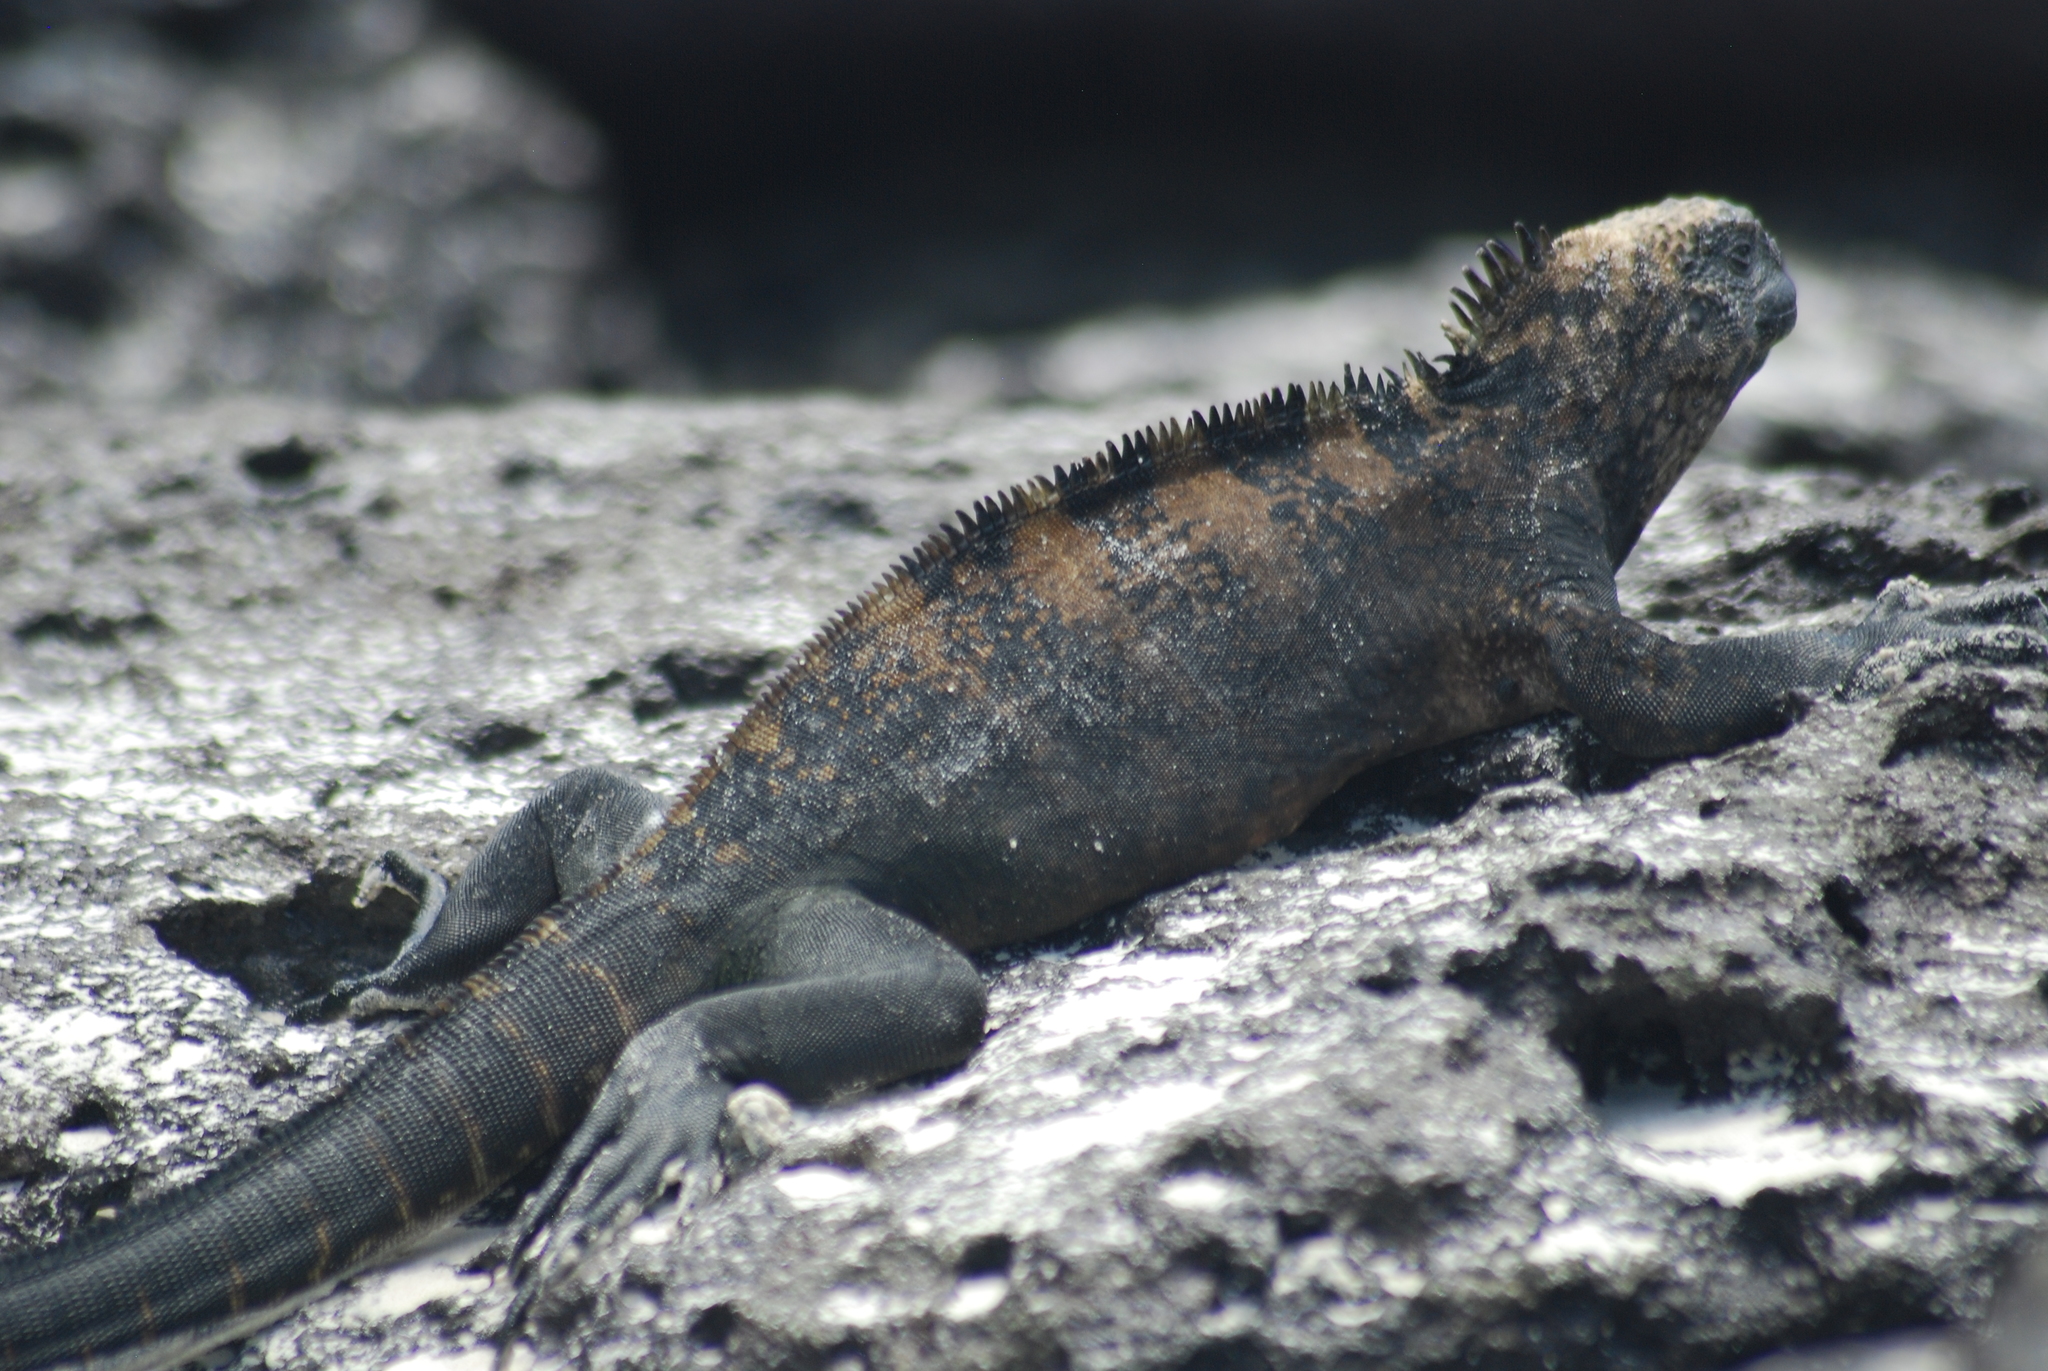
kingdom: Animalia
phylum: Chordata
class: Squamata
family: Iguanidae
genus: Amblyrhynchus
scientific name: Amblyrhynchus cristatus
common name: Marine iguana
